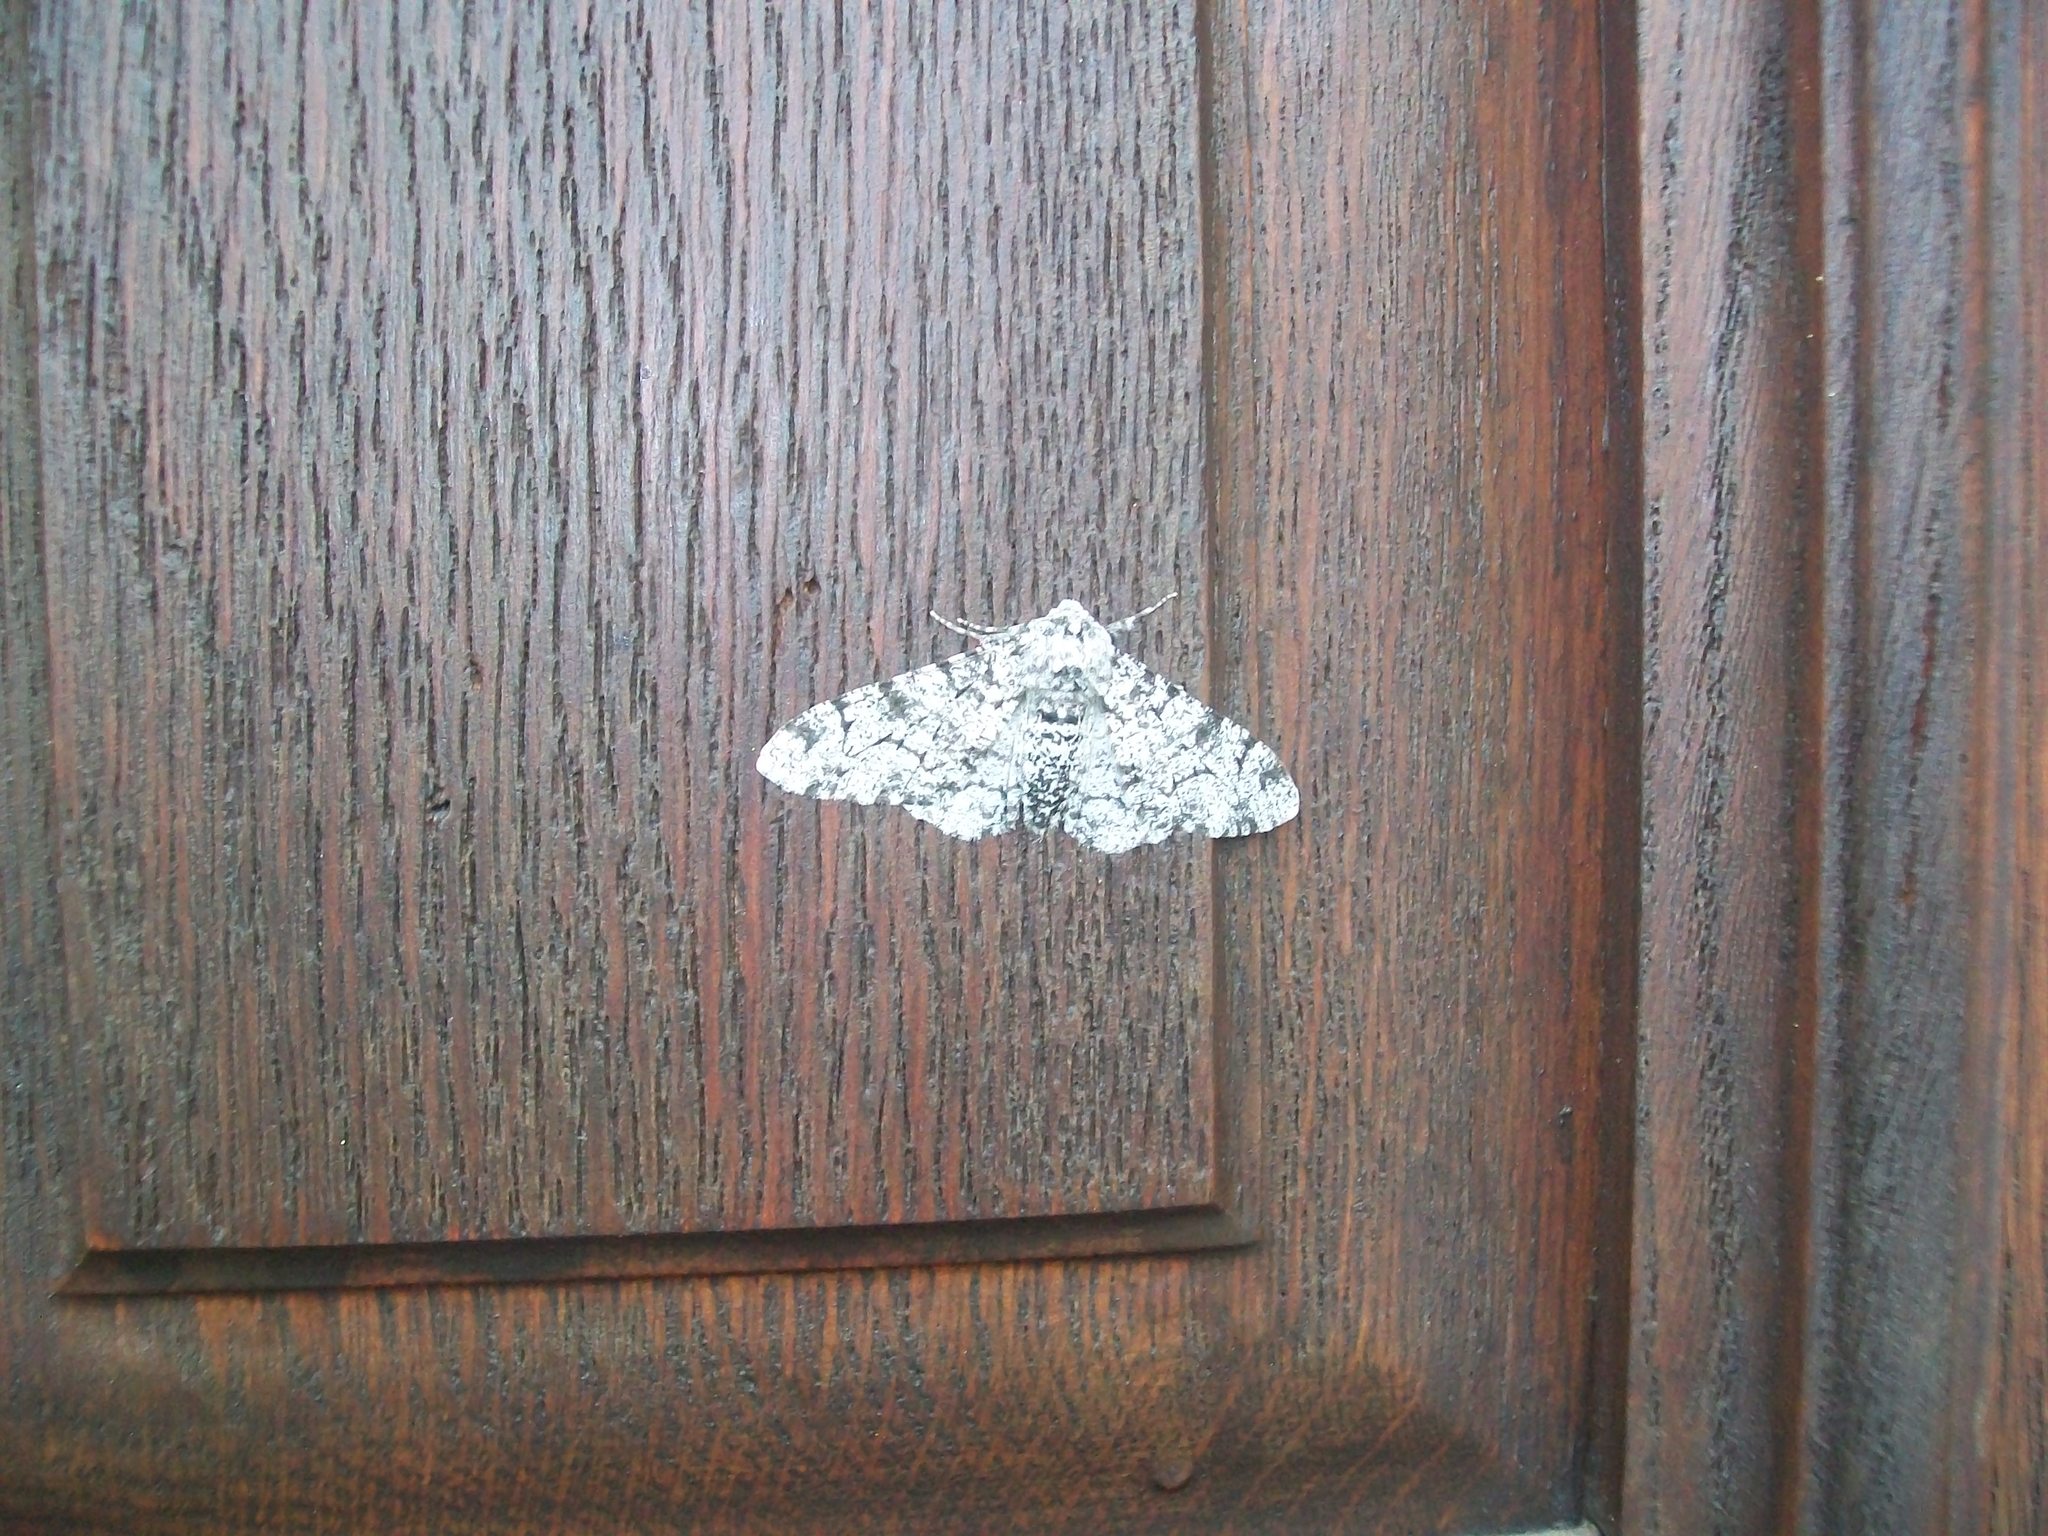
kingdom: Animalia
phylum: Arthropoda
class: Insecta
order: Lepidoptera
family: Geometridae
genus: Biston
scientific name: Biston betularia
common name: Peppered moth
